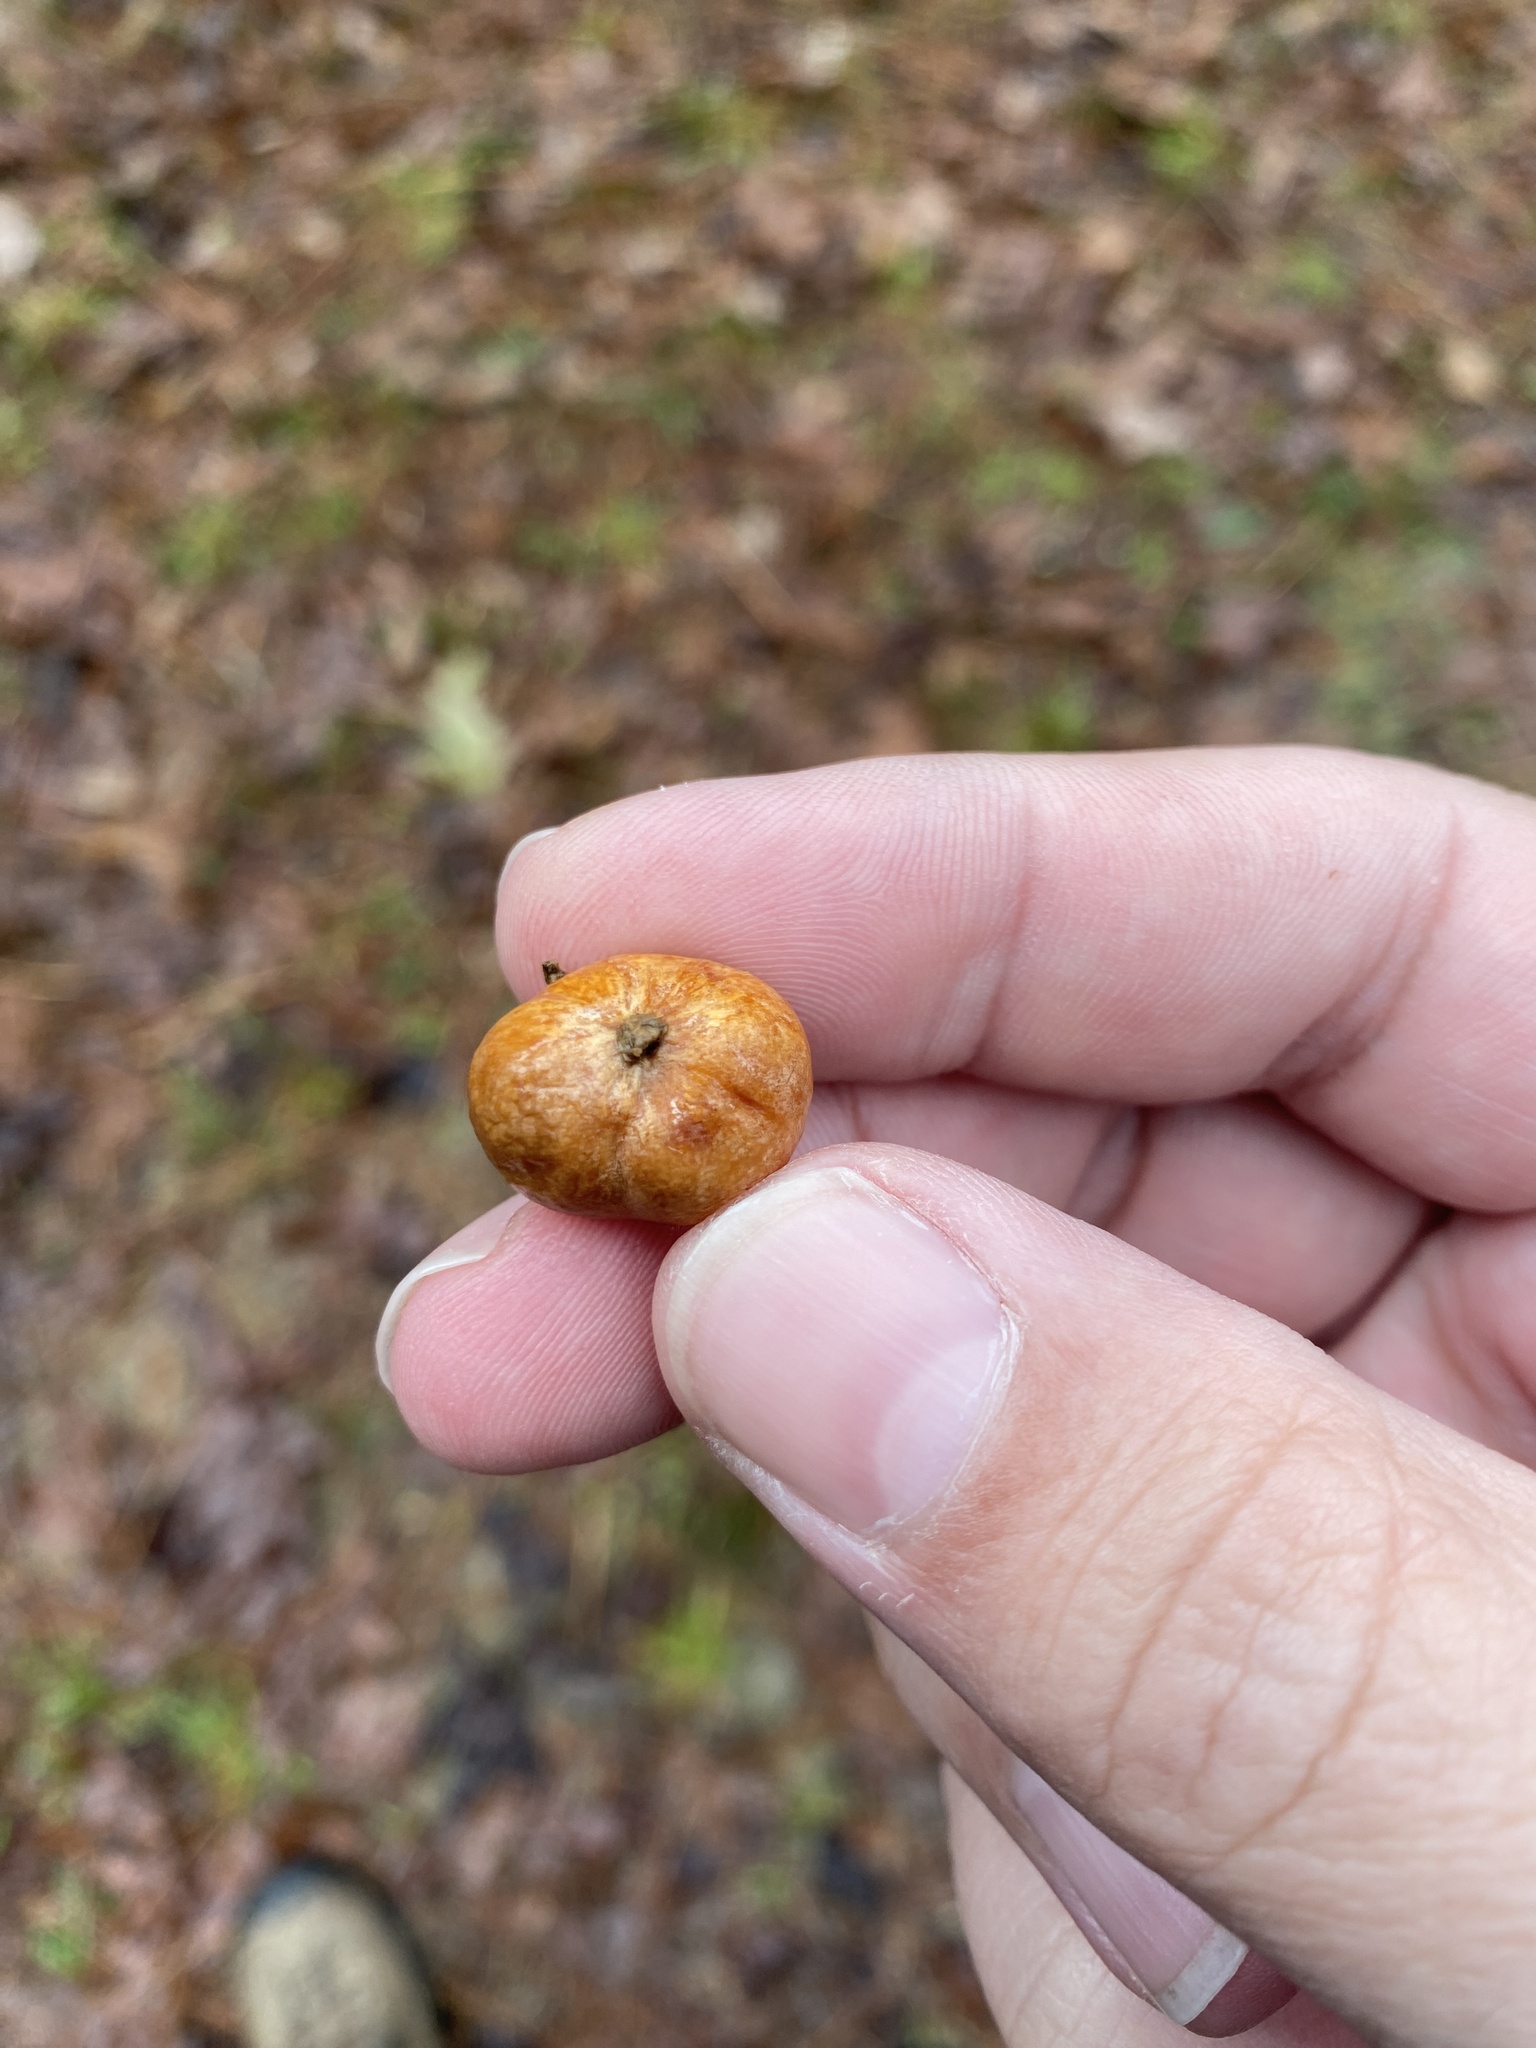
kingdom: Fungi
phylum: Basidiomycota
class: Agaricomycetes
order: Russulales
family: Russulaceae
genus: Zelleromyces
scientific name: Zelleromyces cinnabarinus
